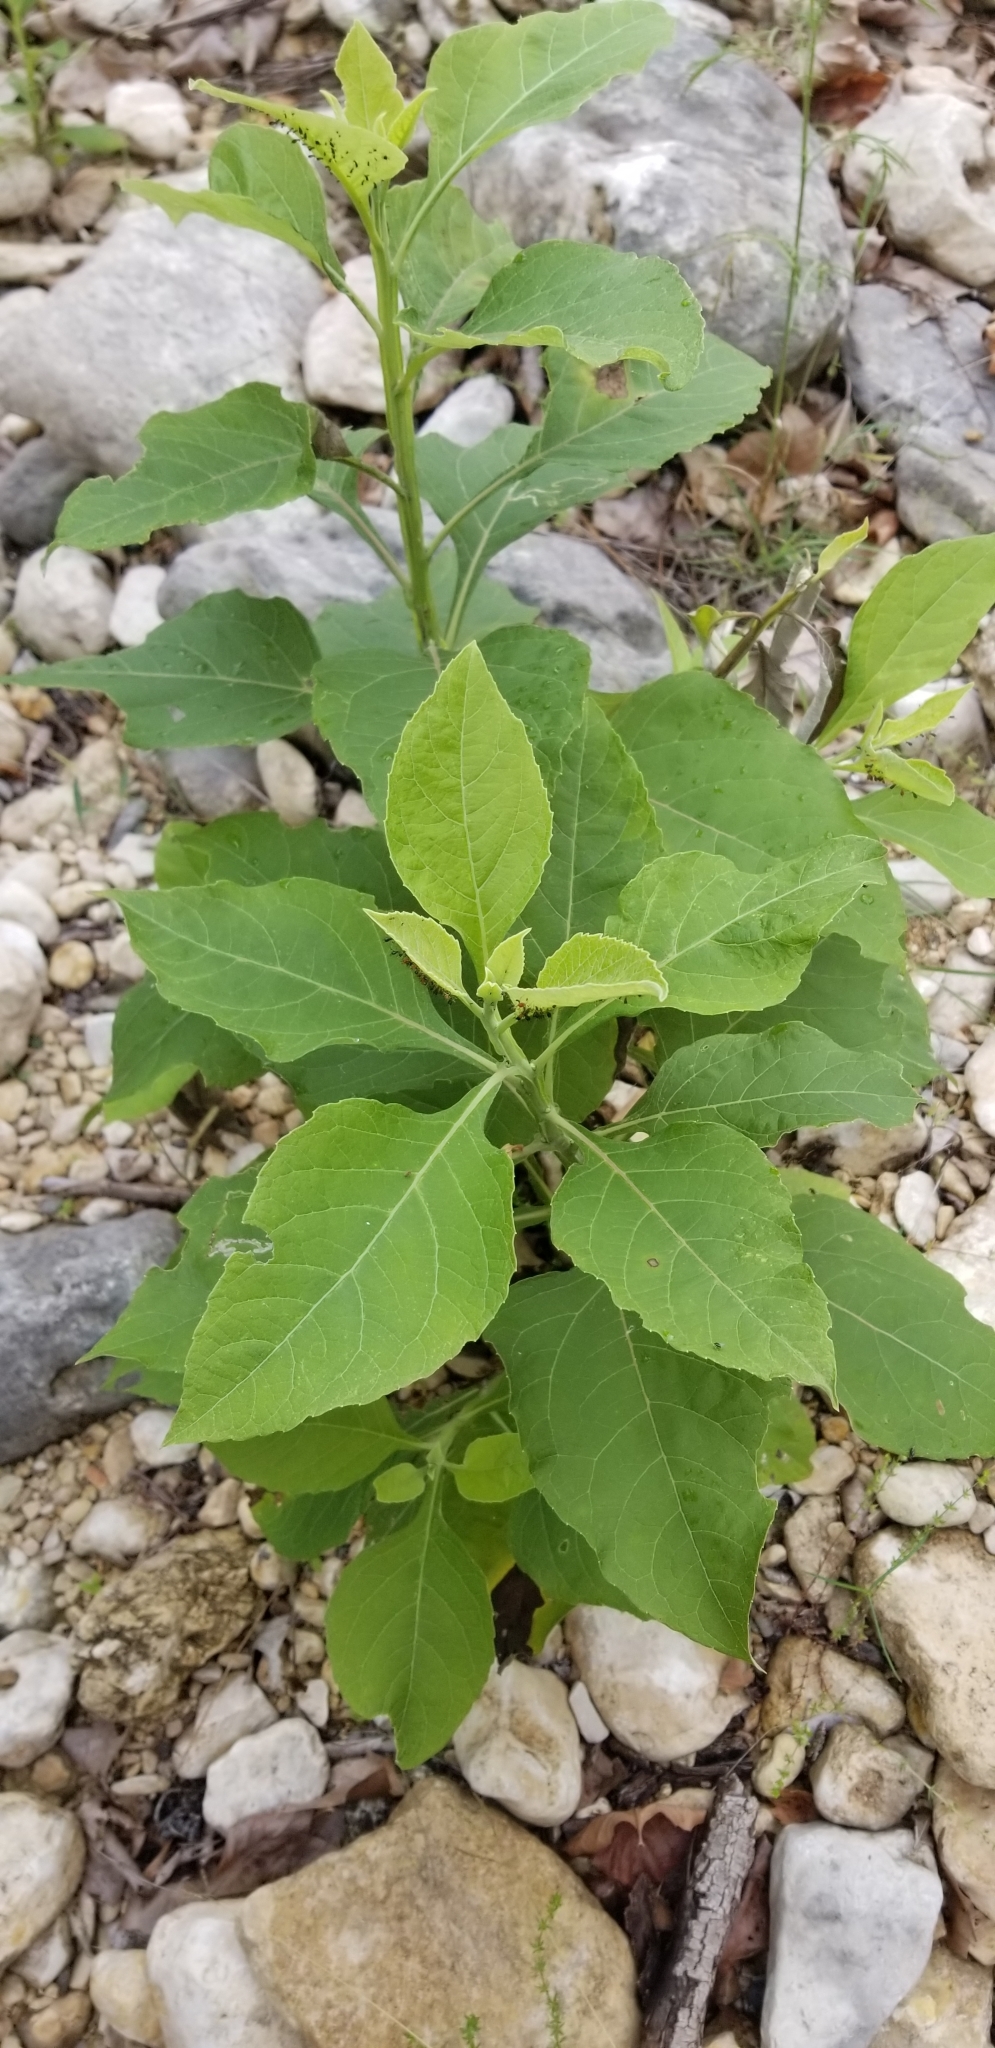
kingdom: Plantae
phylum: Tracheophyta
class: Magnoliopsida
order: Asterales
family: Asteraceae
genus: Verbesina
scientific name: Verbesina virginica
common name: Frostweed
